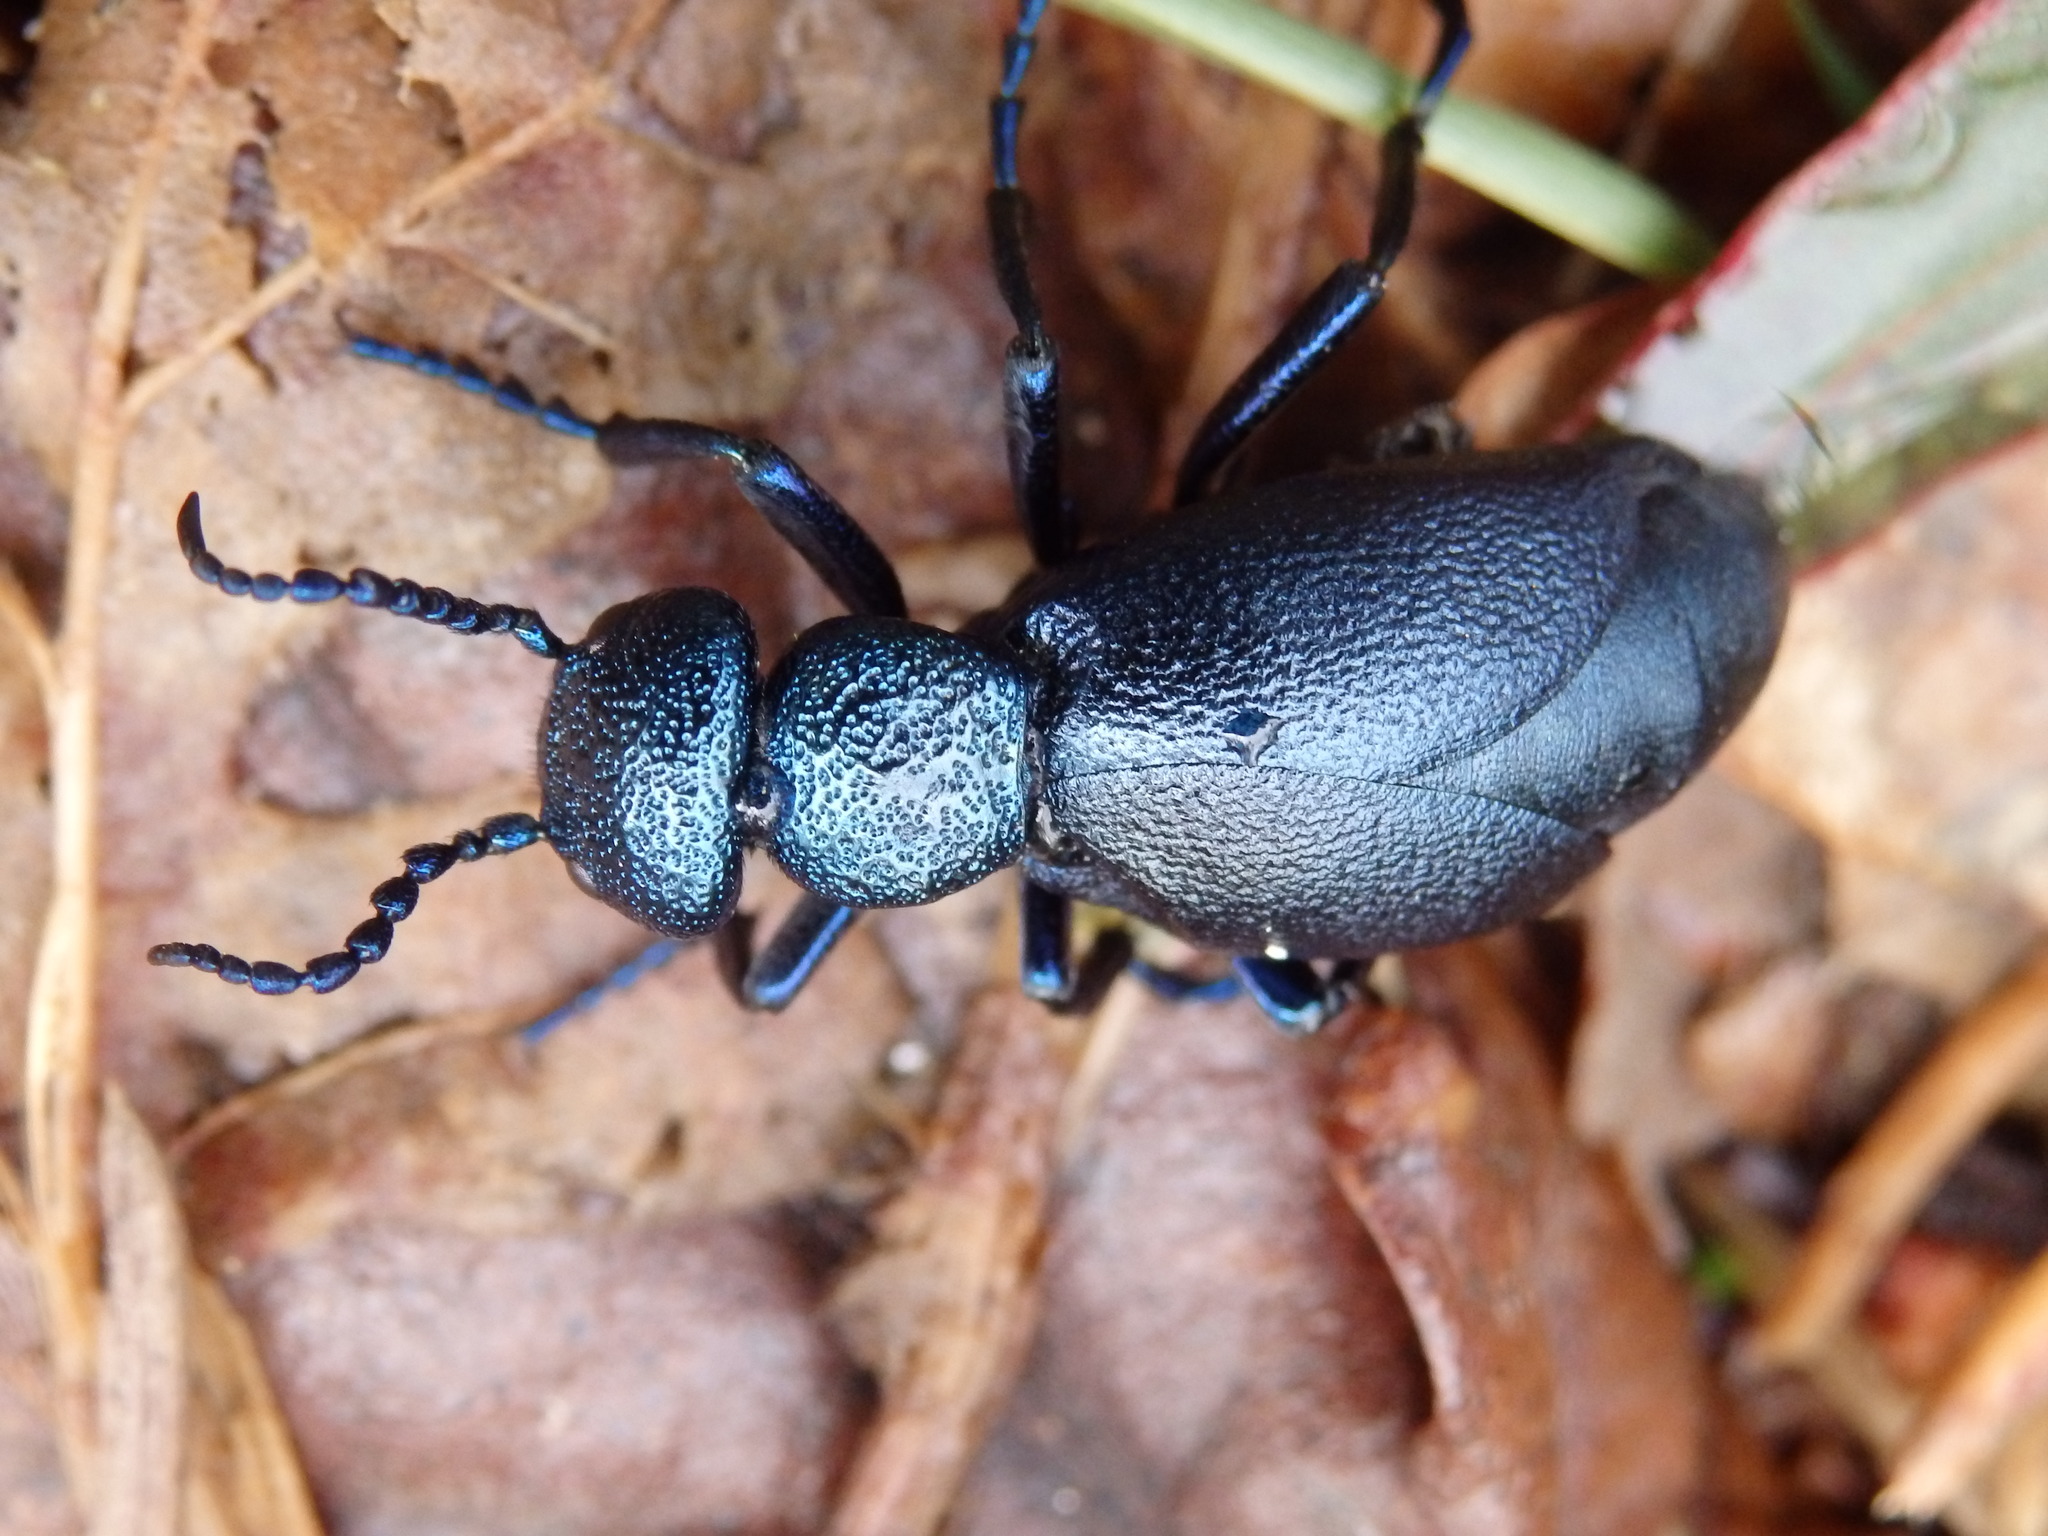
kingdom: Animalia
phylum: Arthropoda
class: Insecta
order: Coleoptera
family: Meloidae
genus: Meloe
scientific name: Meloe proscarabaeus
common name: Black oil-beetle
